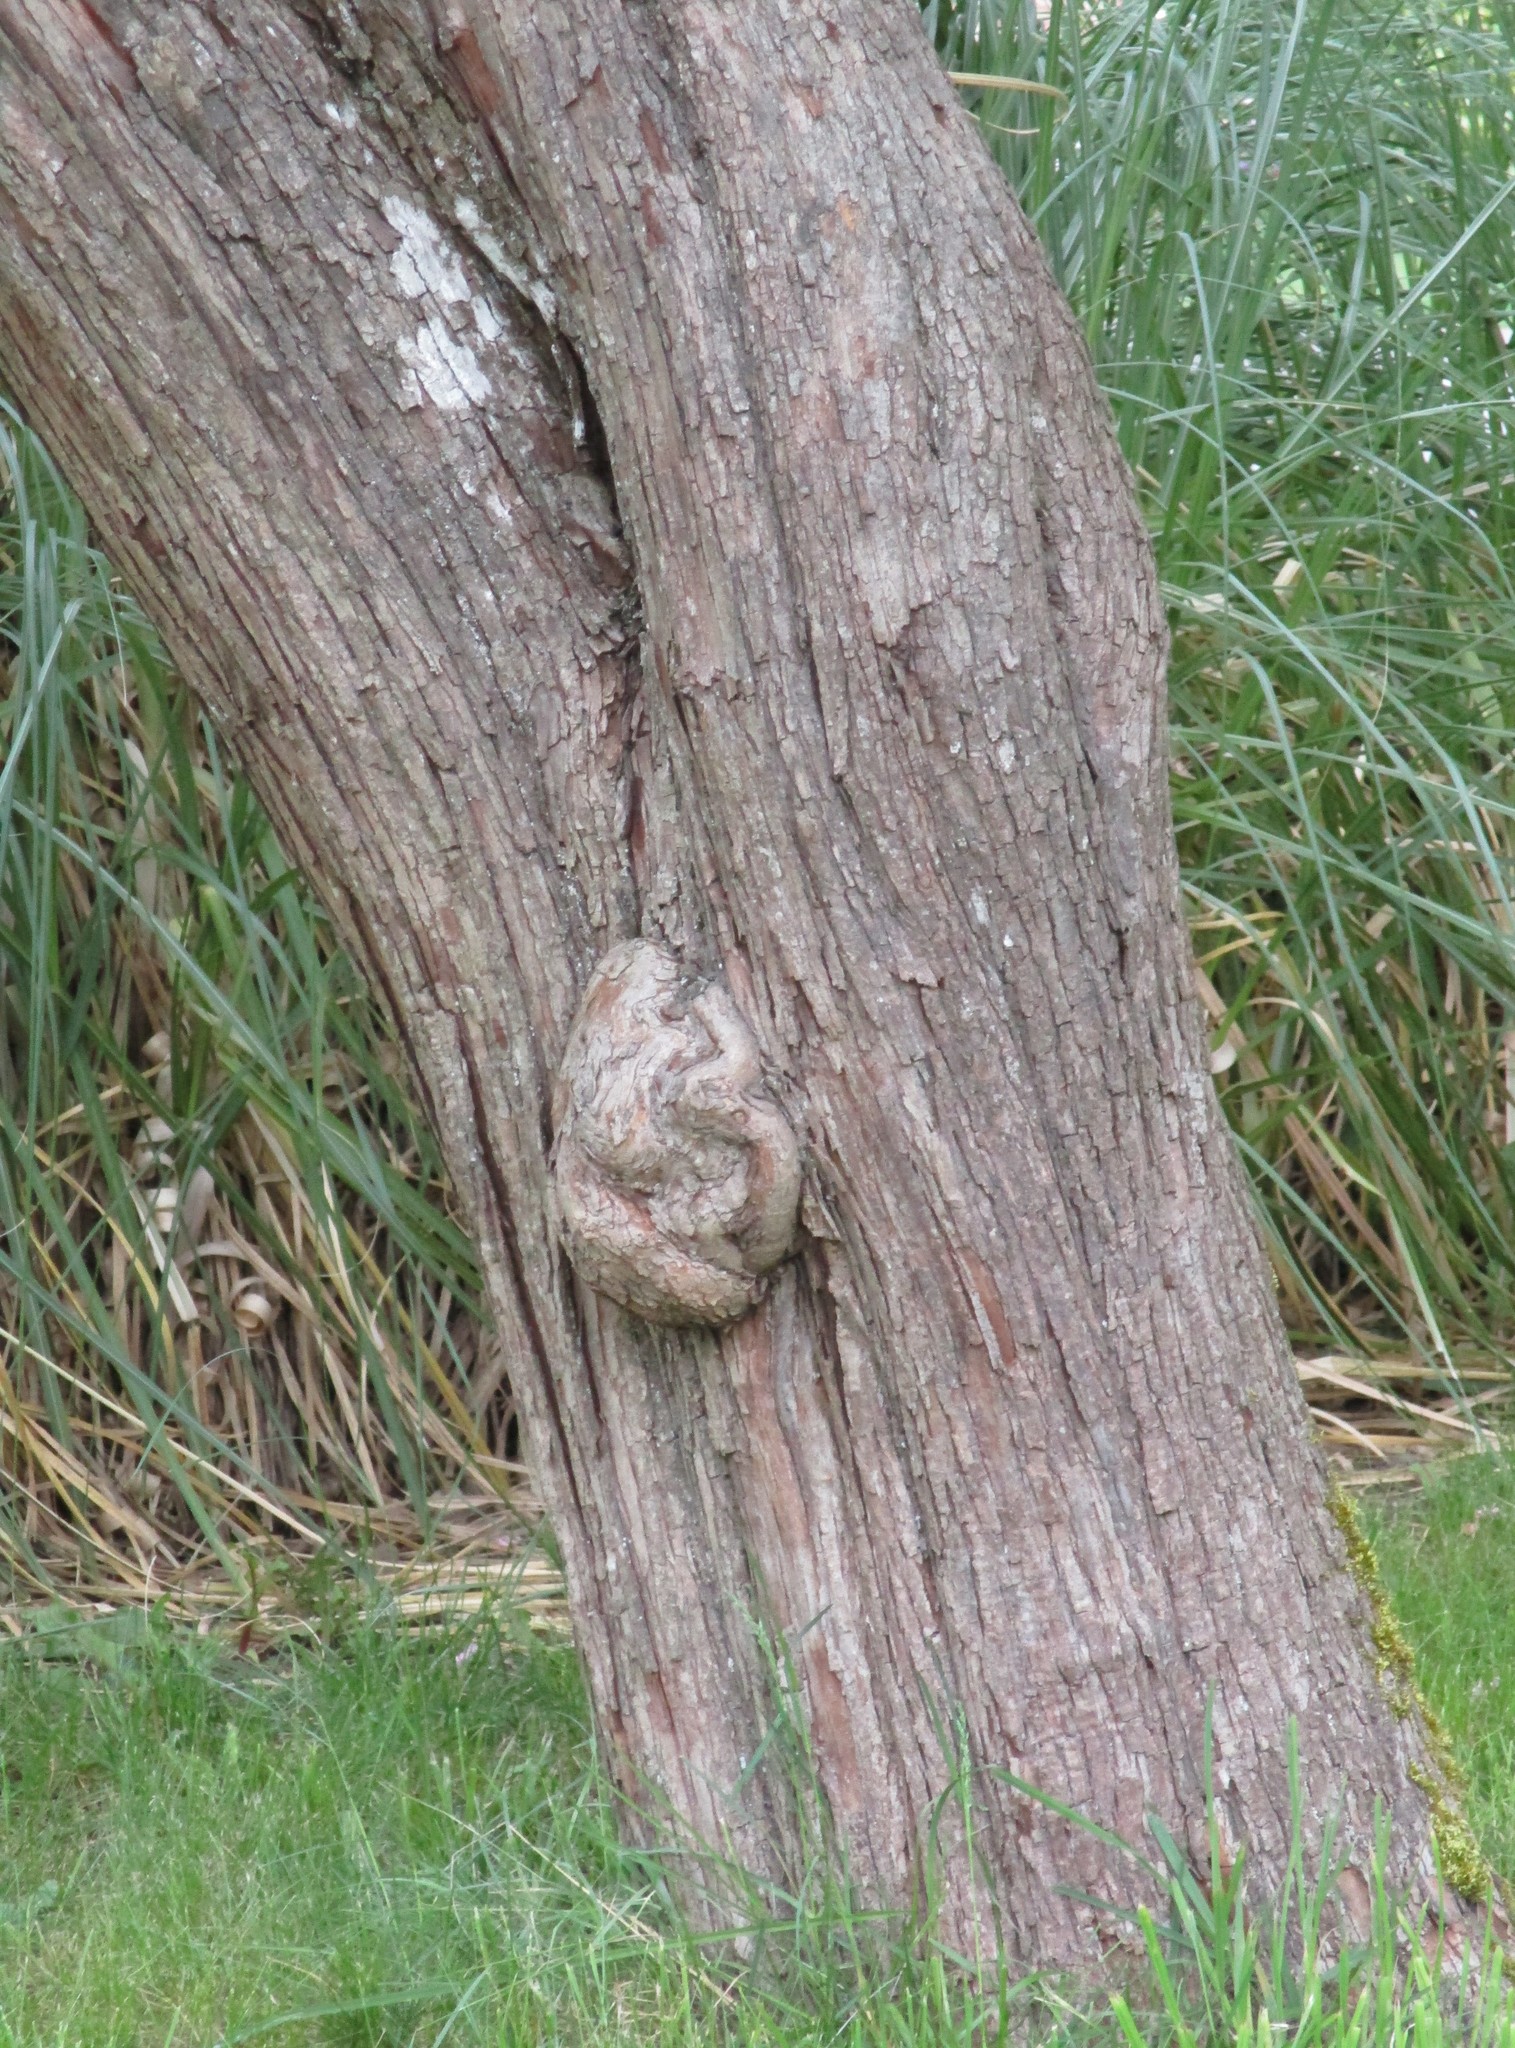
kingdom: Plantae
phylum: Tracheophyta
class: Magnoliopsida
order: Rosales
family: Rosaceae
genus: Crataegus
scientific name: Crataegus monogyna
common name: Hawthorn
